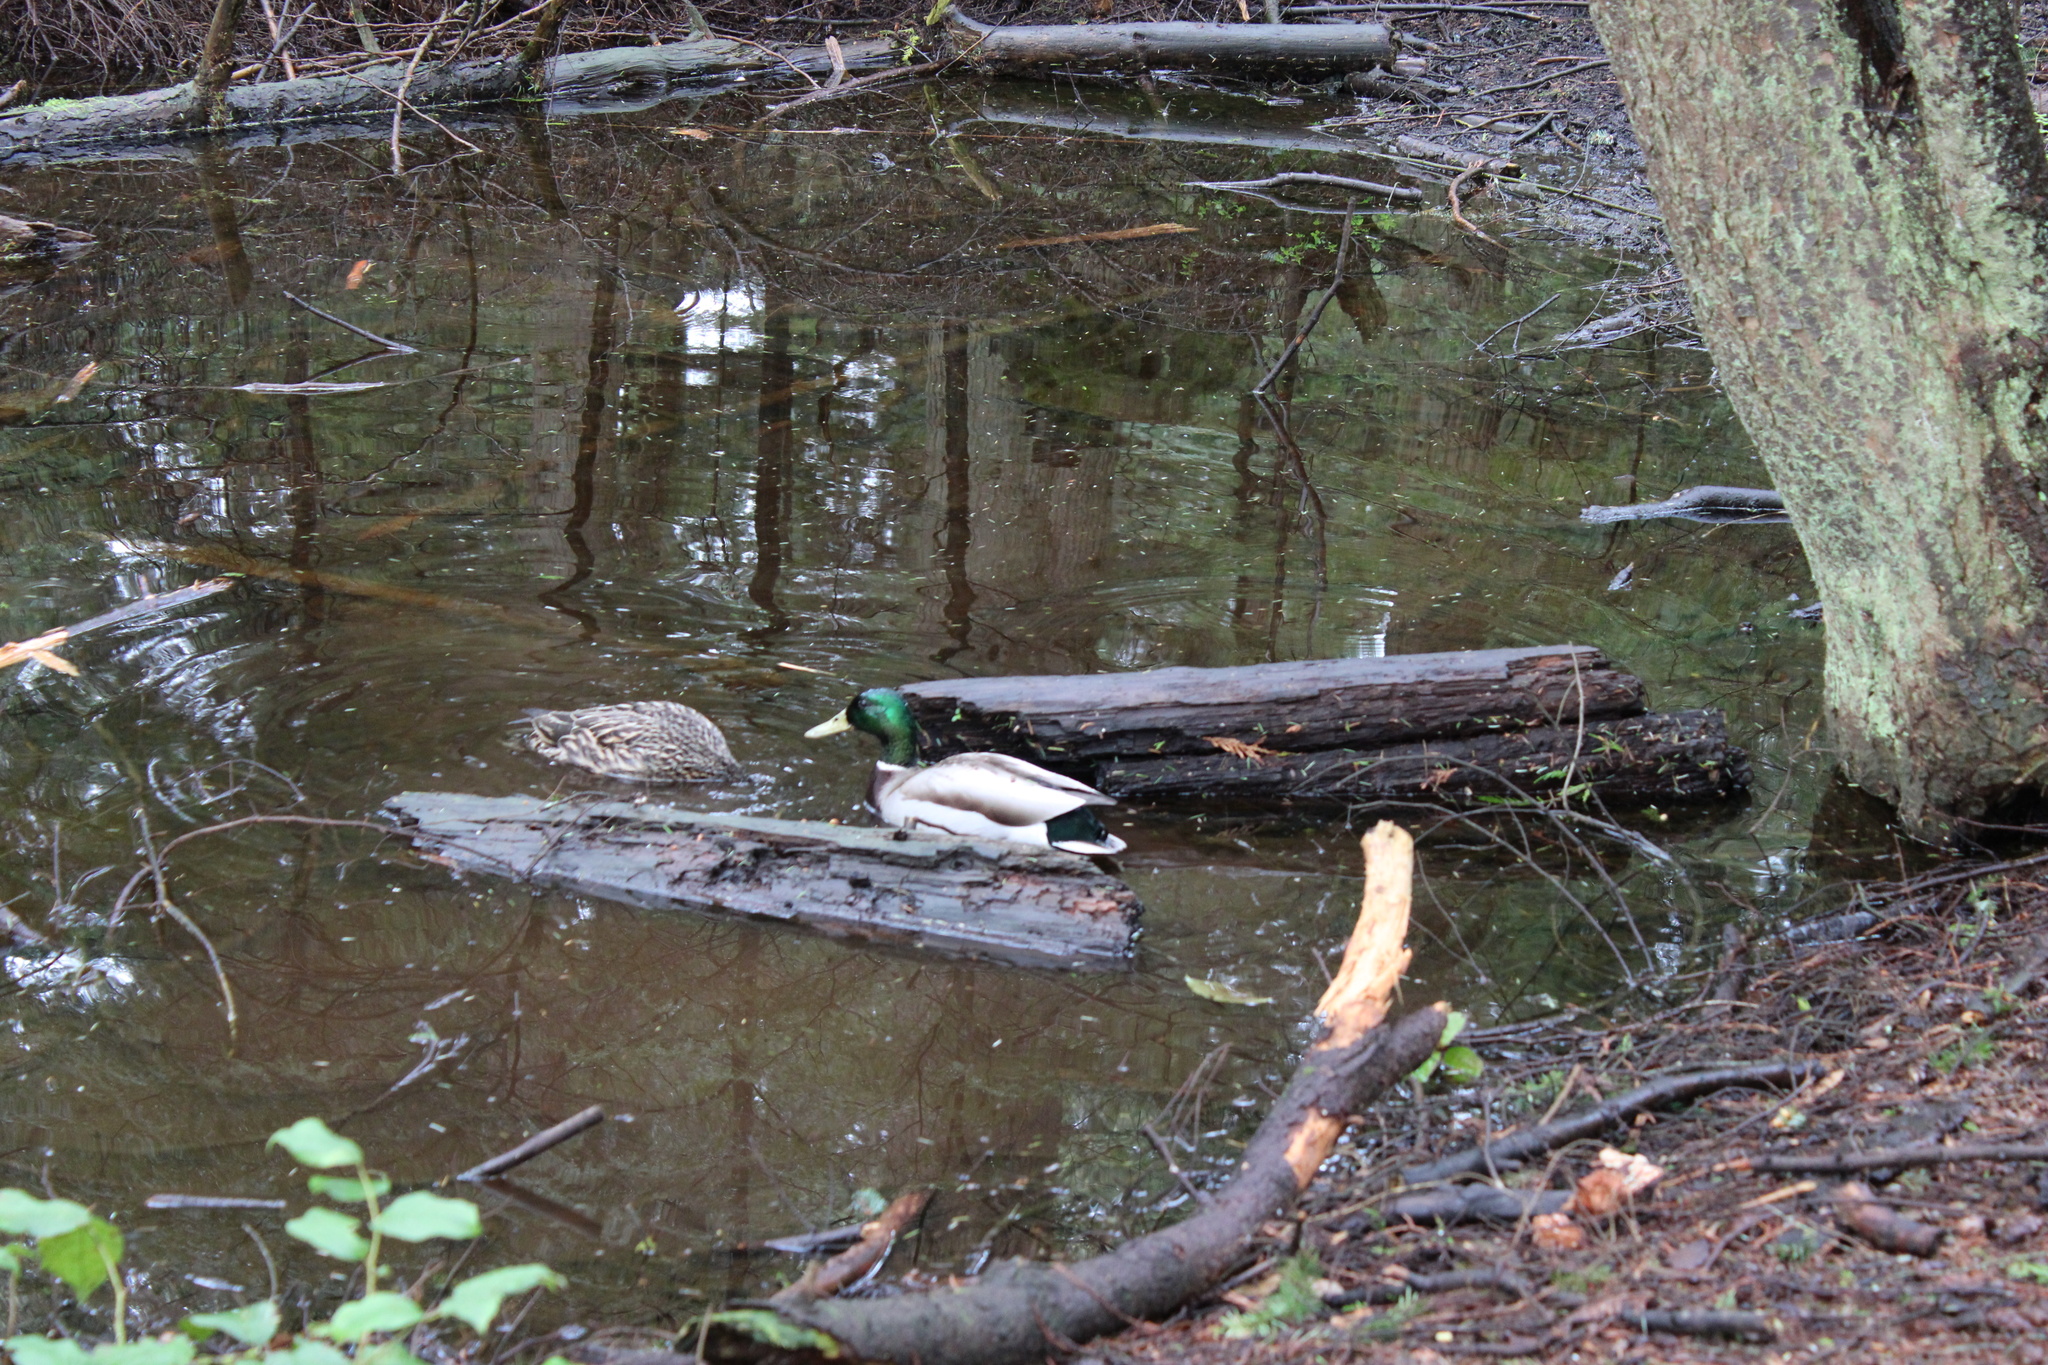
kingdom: Animalia
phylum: Chordata
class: Aves
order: Anseriformes
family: Anatidae
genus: Anas
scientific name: Anas platyrhynchos
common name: Mallard
